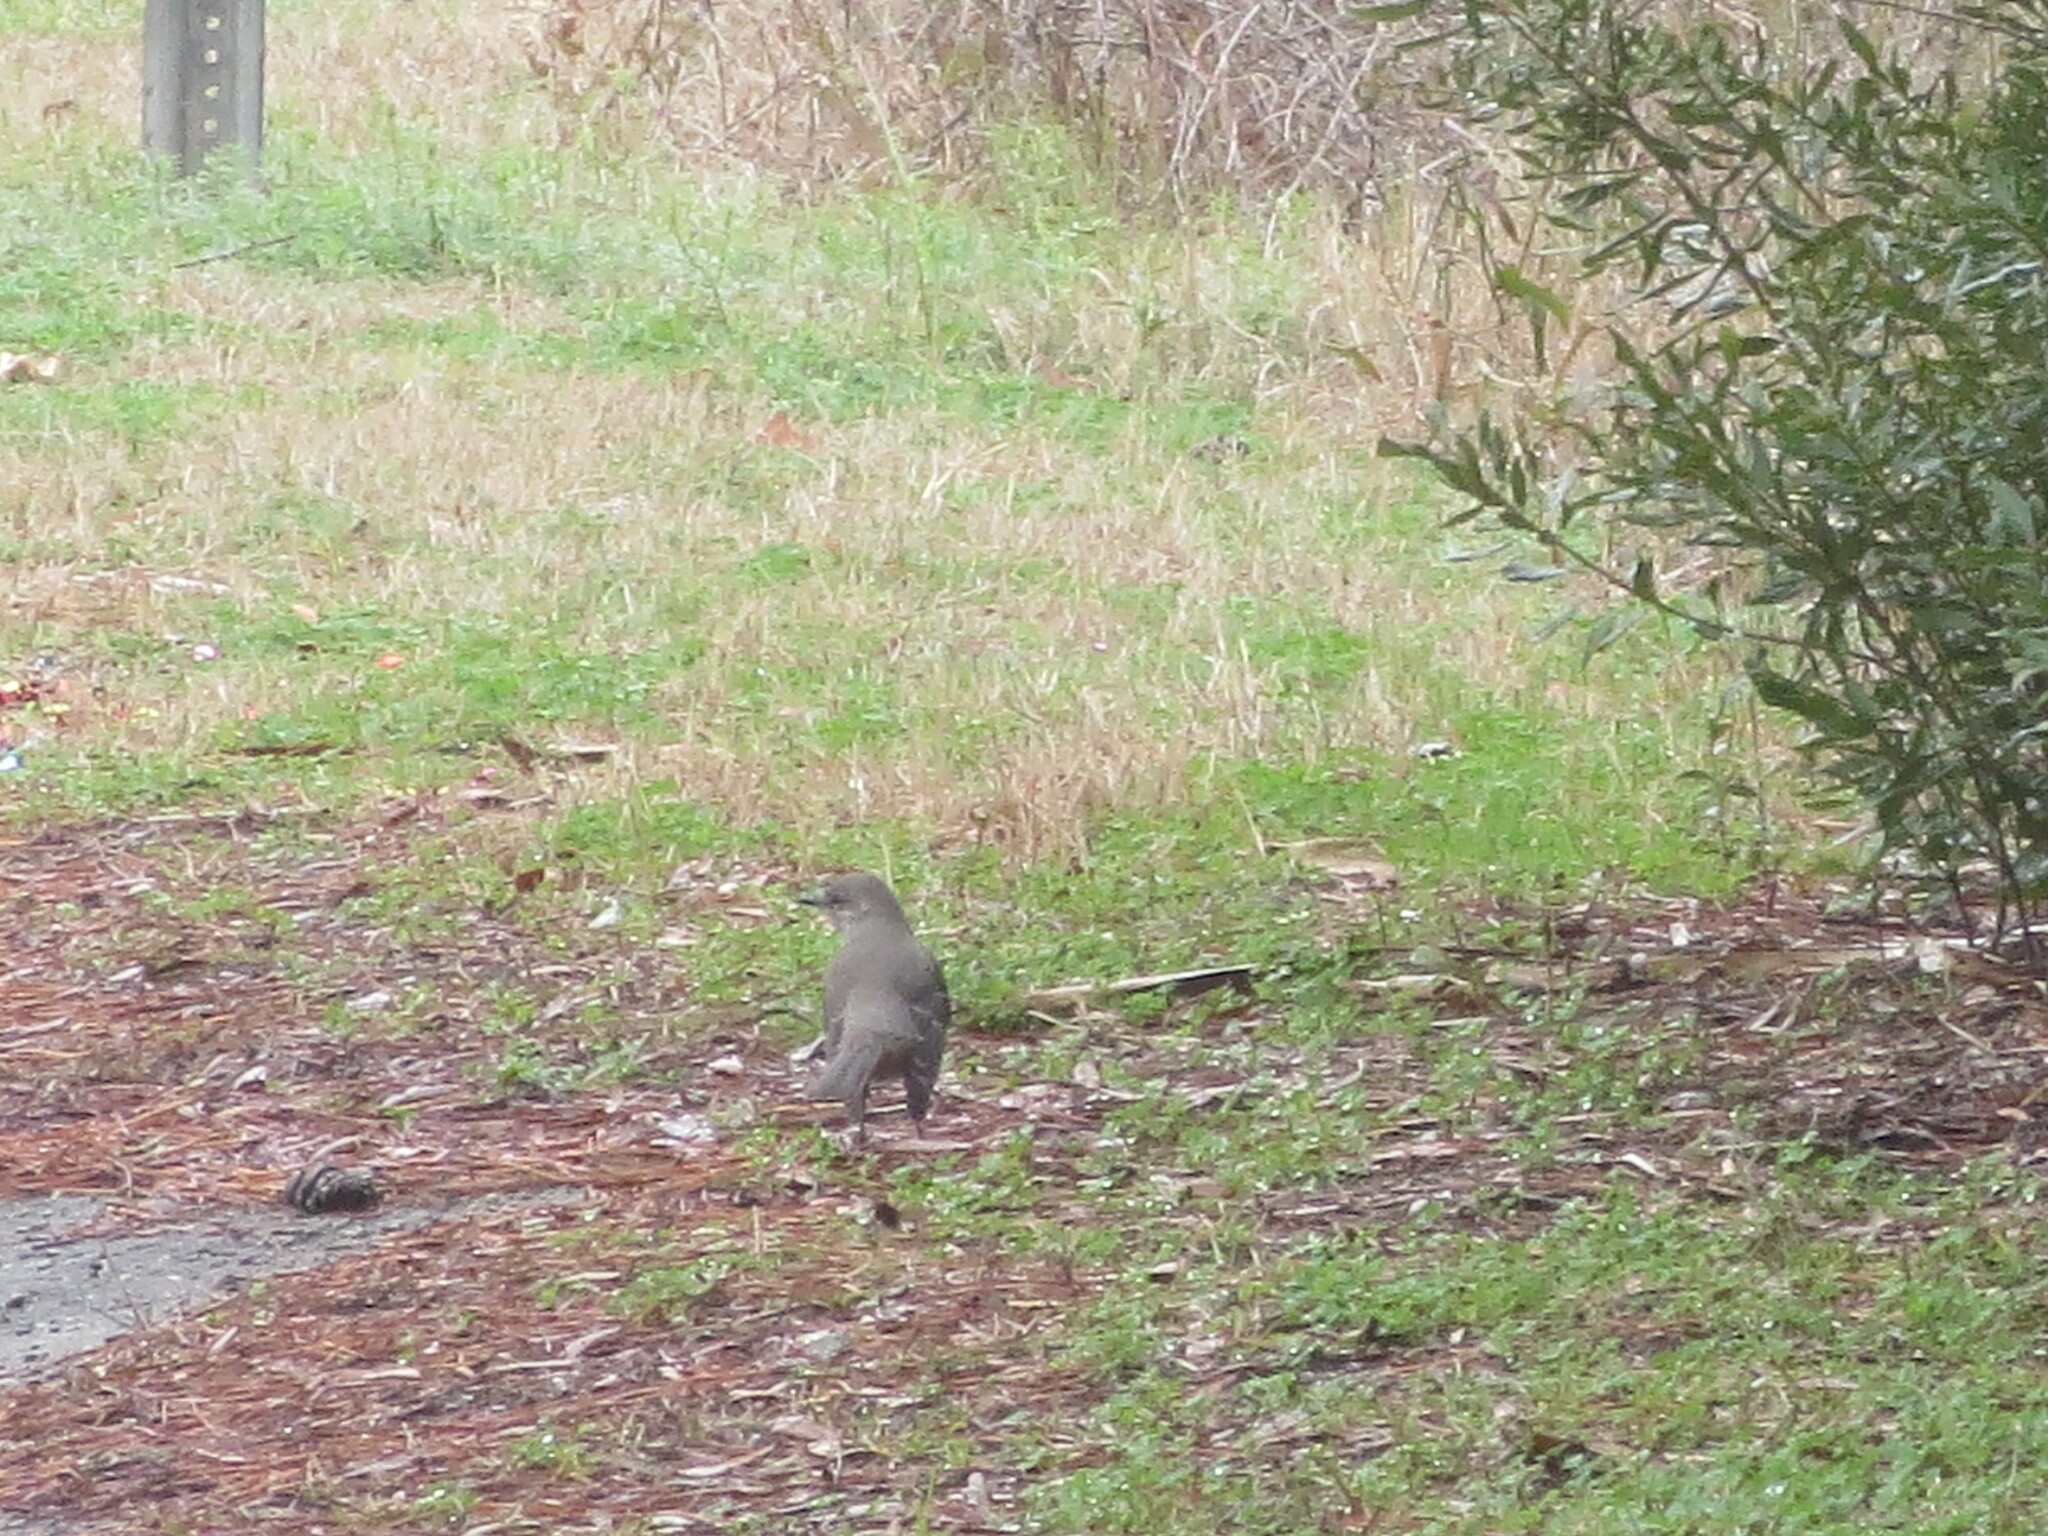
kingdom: Animalia
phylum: Chordata
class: Aves
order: Passeriformes
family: Mimidae
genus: Mimus
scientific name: Mimus polyglottos
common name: Northern mockingbird
